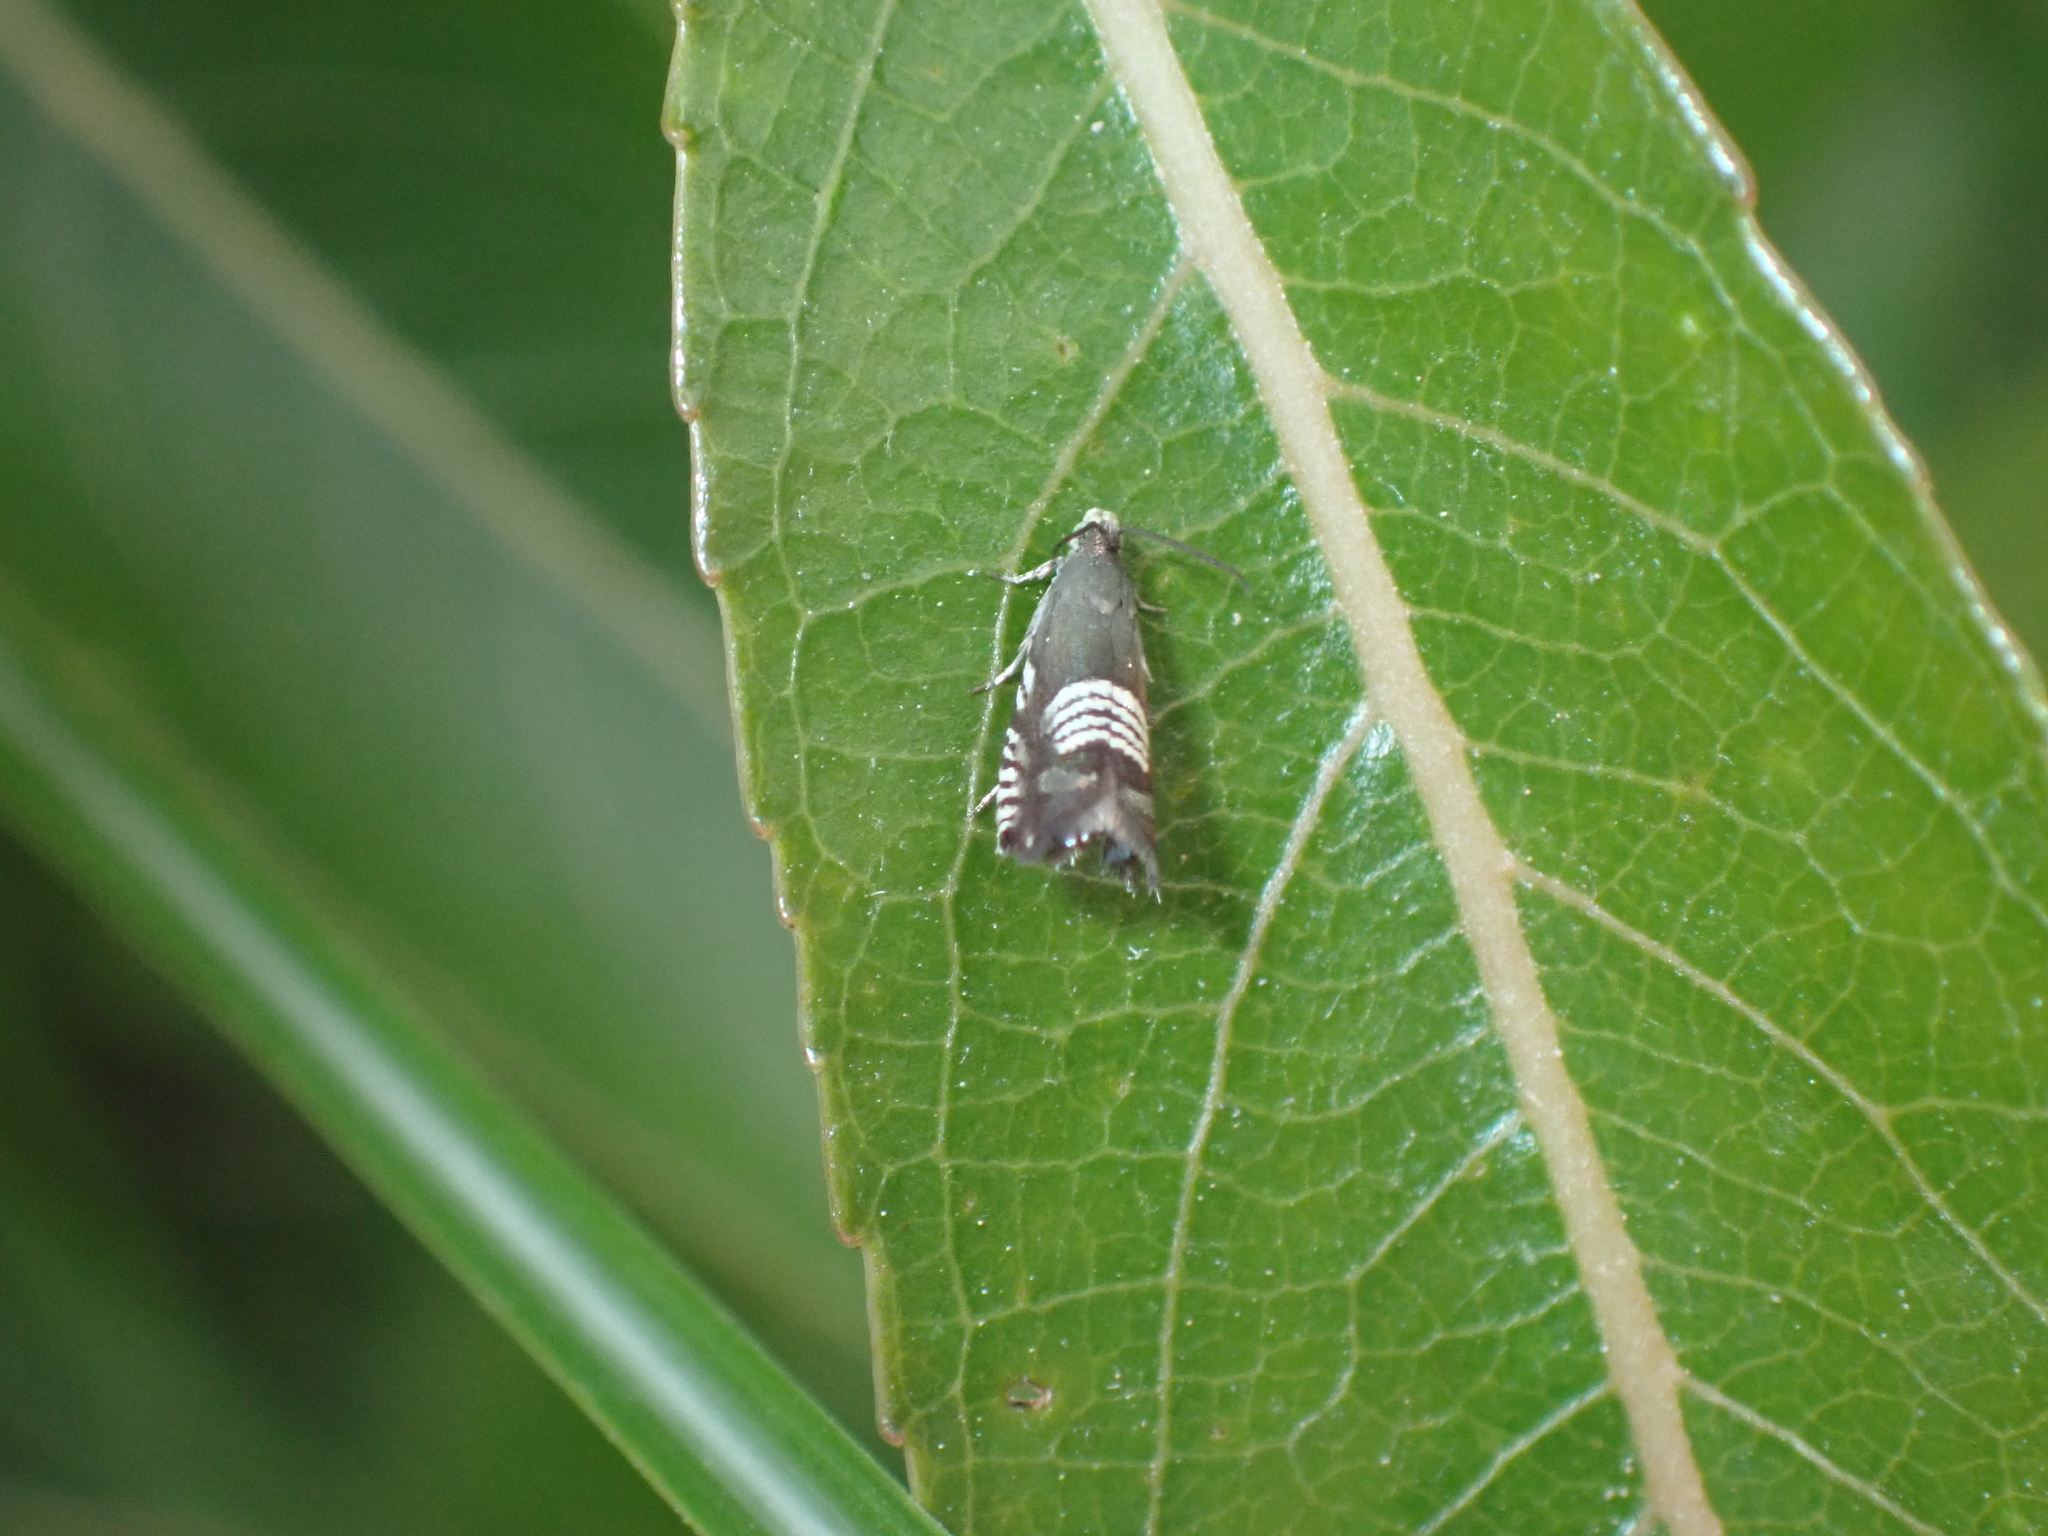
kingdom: Animalia
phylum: Arthropoda
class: Insecta
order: Lepidoptera
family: Tortricidae
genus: Grapholita
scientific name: Grapholita compositella
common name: Triple-stripe piercer
